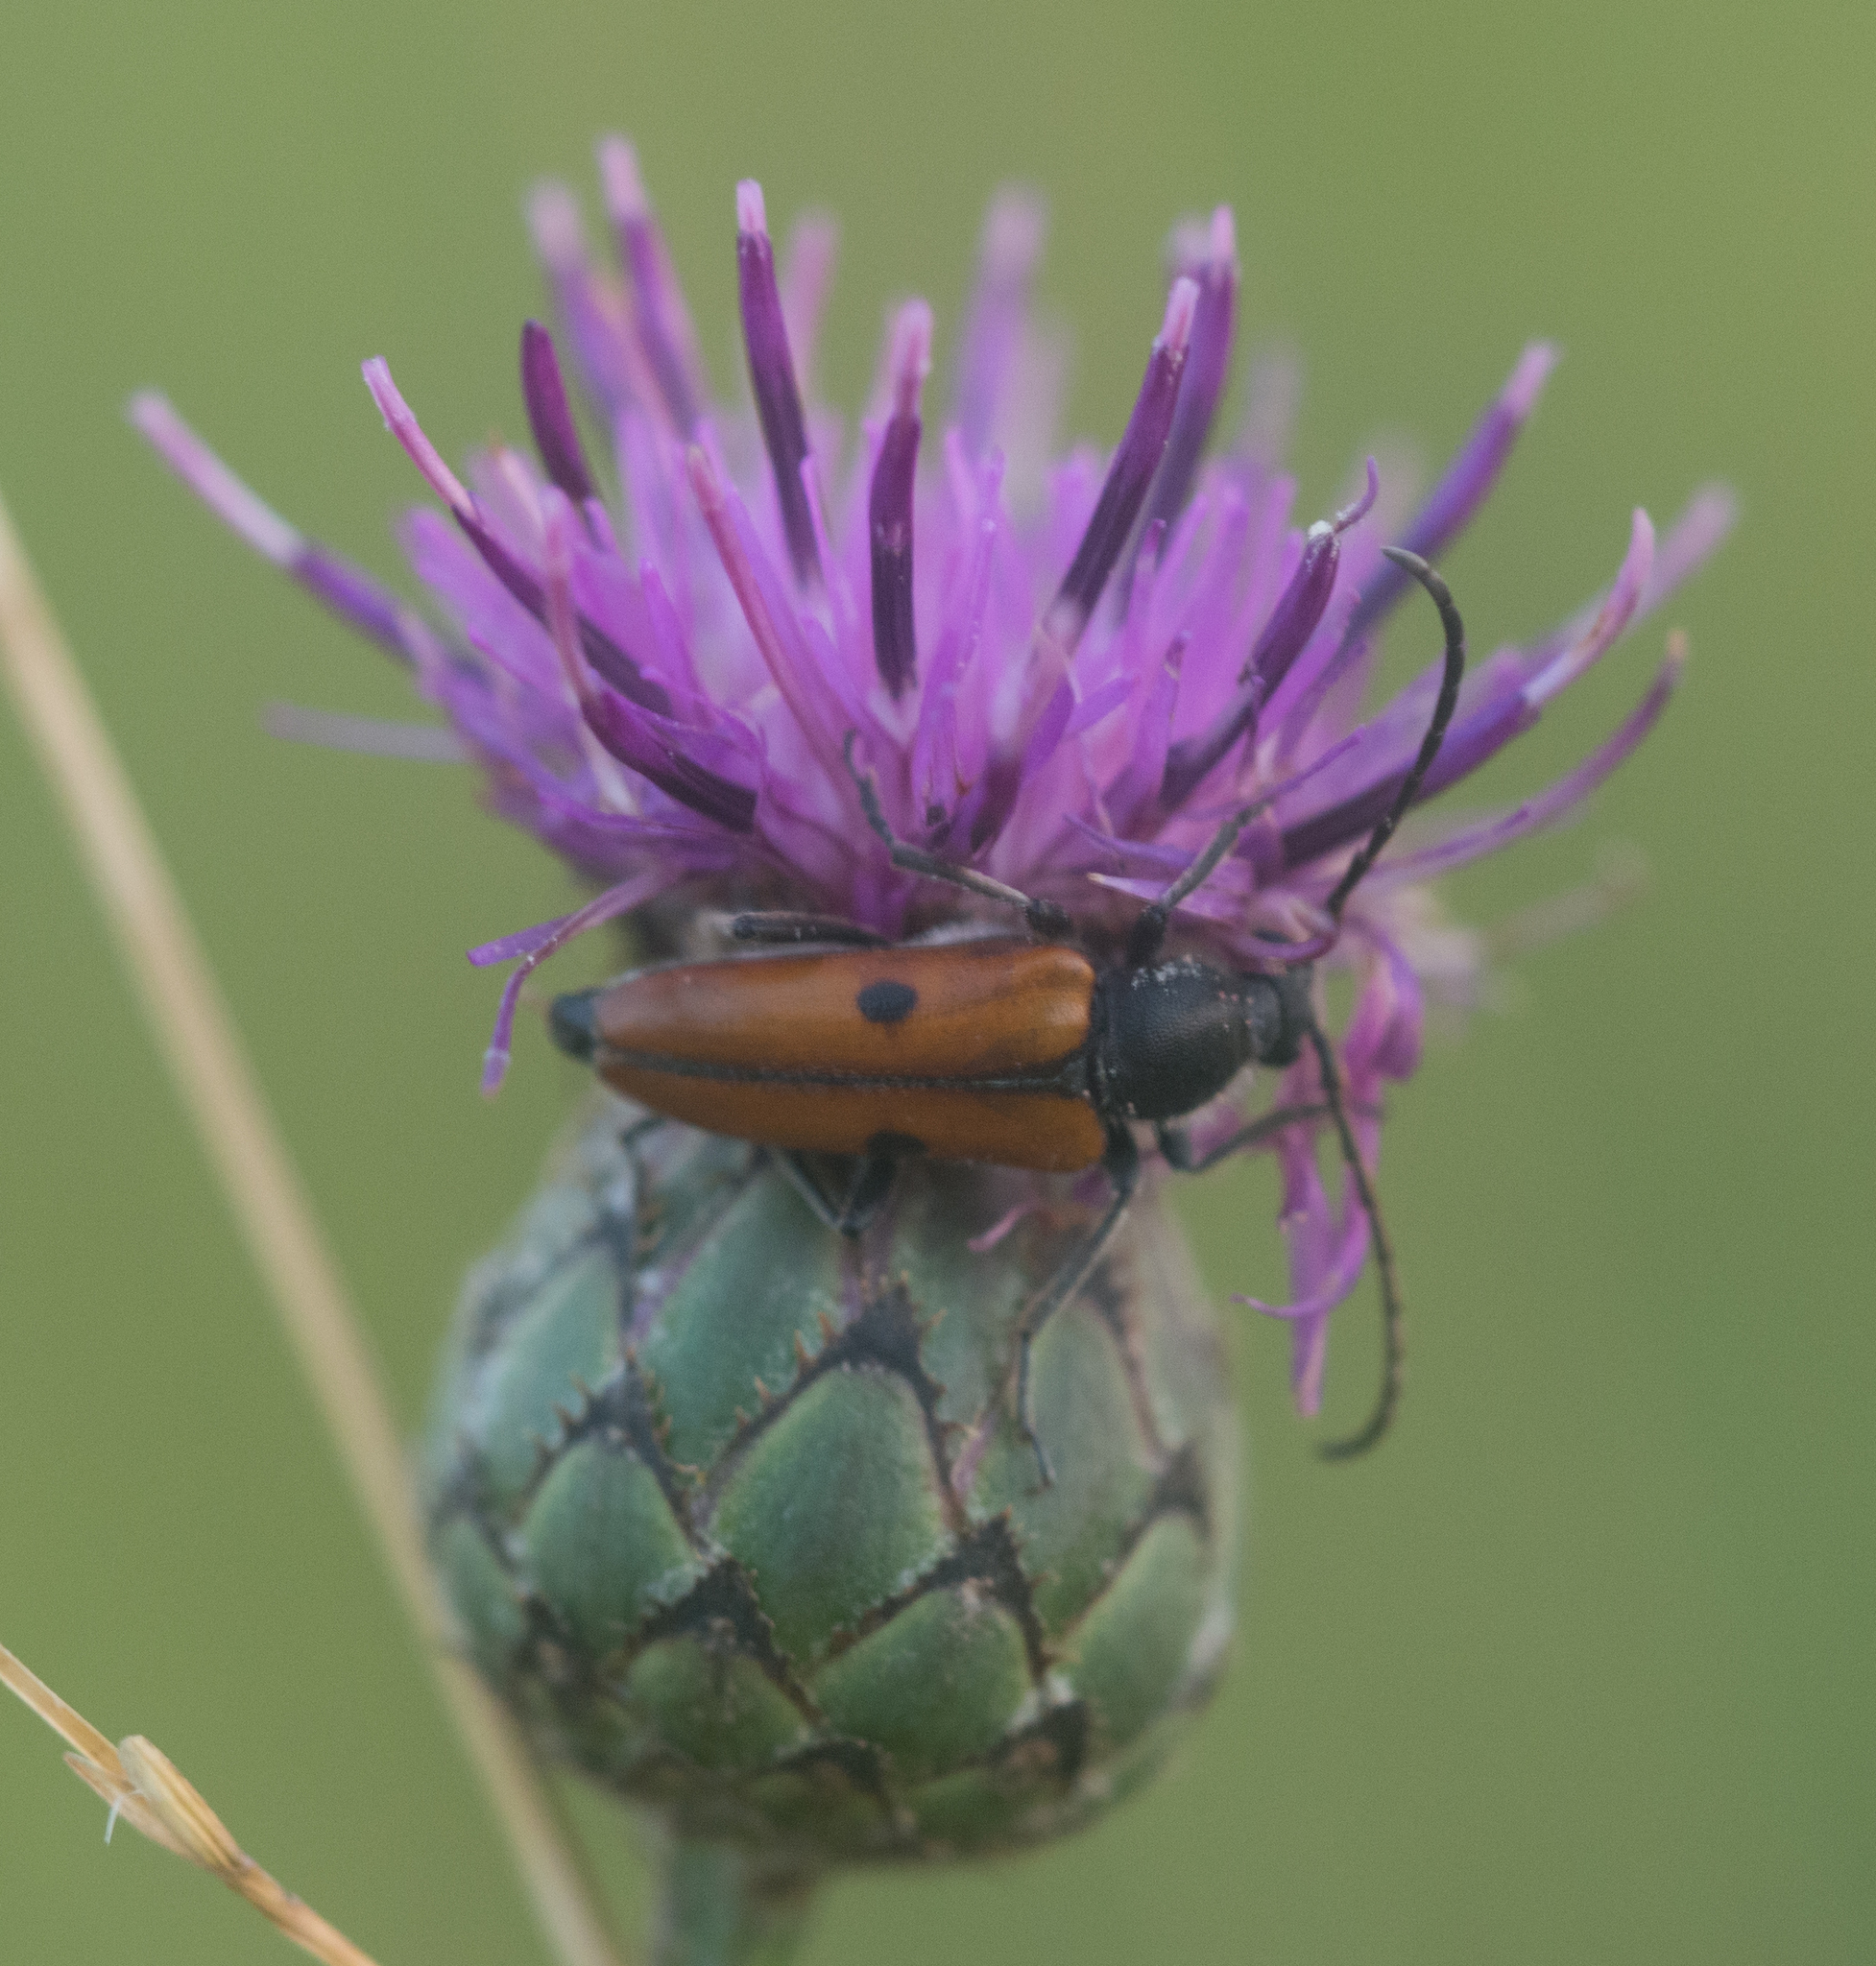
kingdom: Animalia
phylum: Arthropoda
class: Insecta
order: Coleoptera
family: Cerambycidae
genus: Vadonia
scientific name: Vadonia unipunctata
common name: Long-horned beetle
